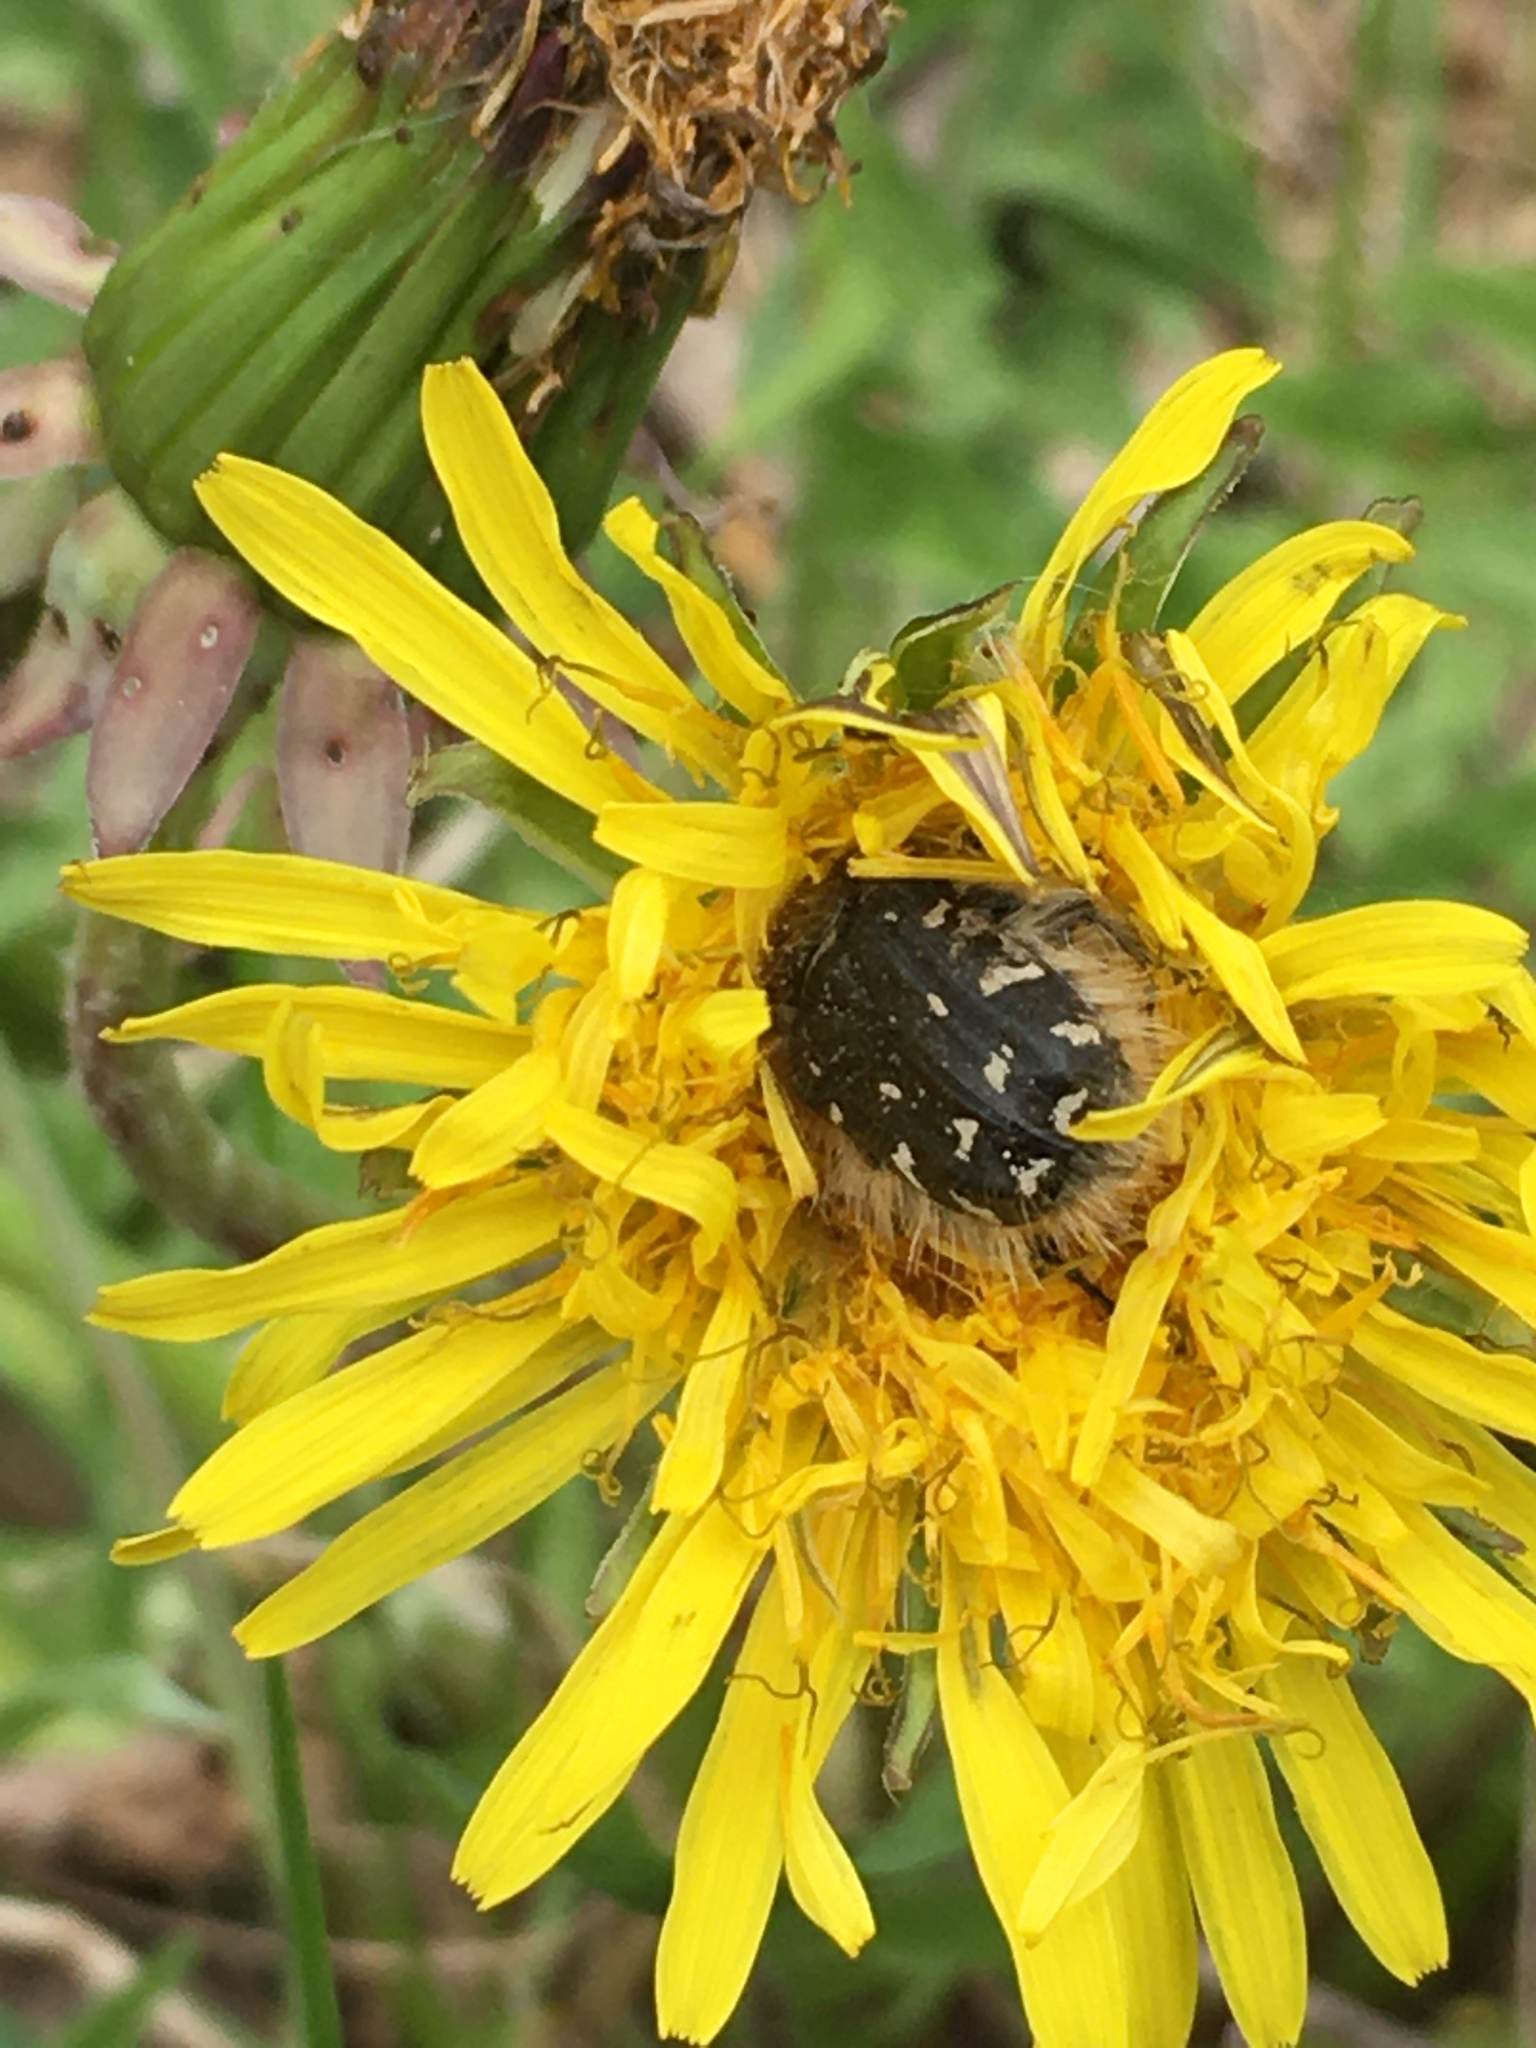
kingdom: Animalia
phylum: Arthropoda
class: Insecta
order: Coleoptera
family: Scarabaeidae
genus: Tropinota
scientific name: Tropinota hirta
